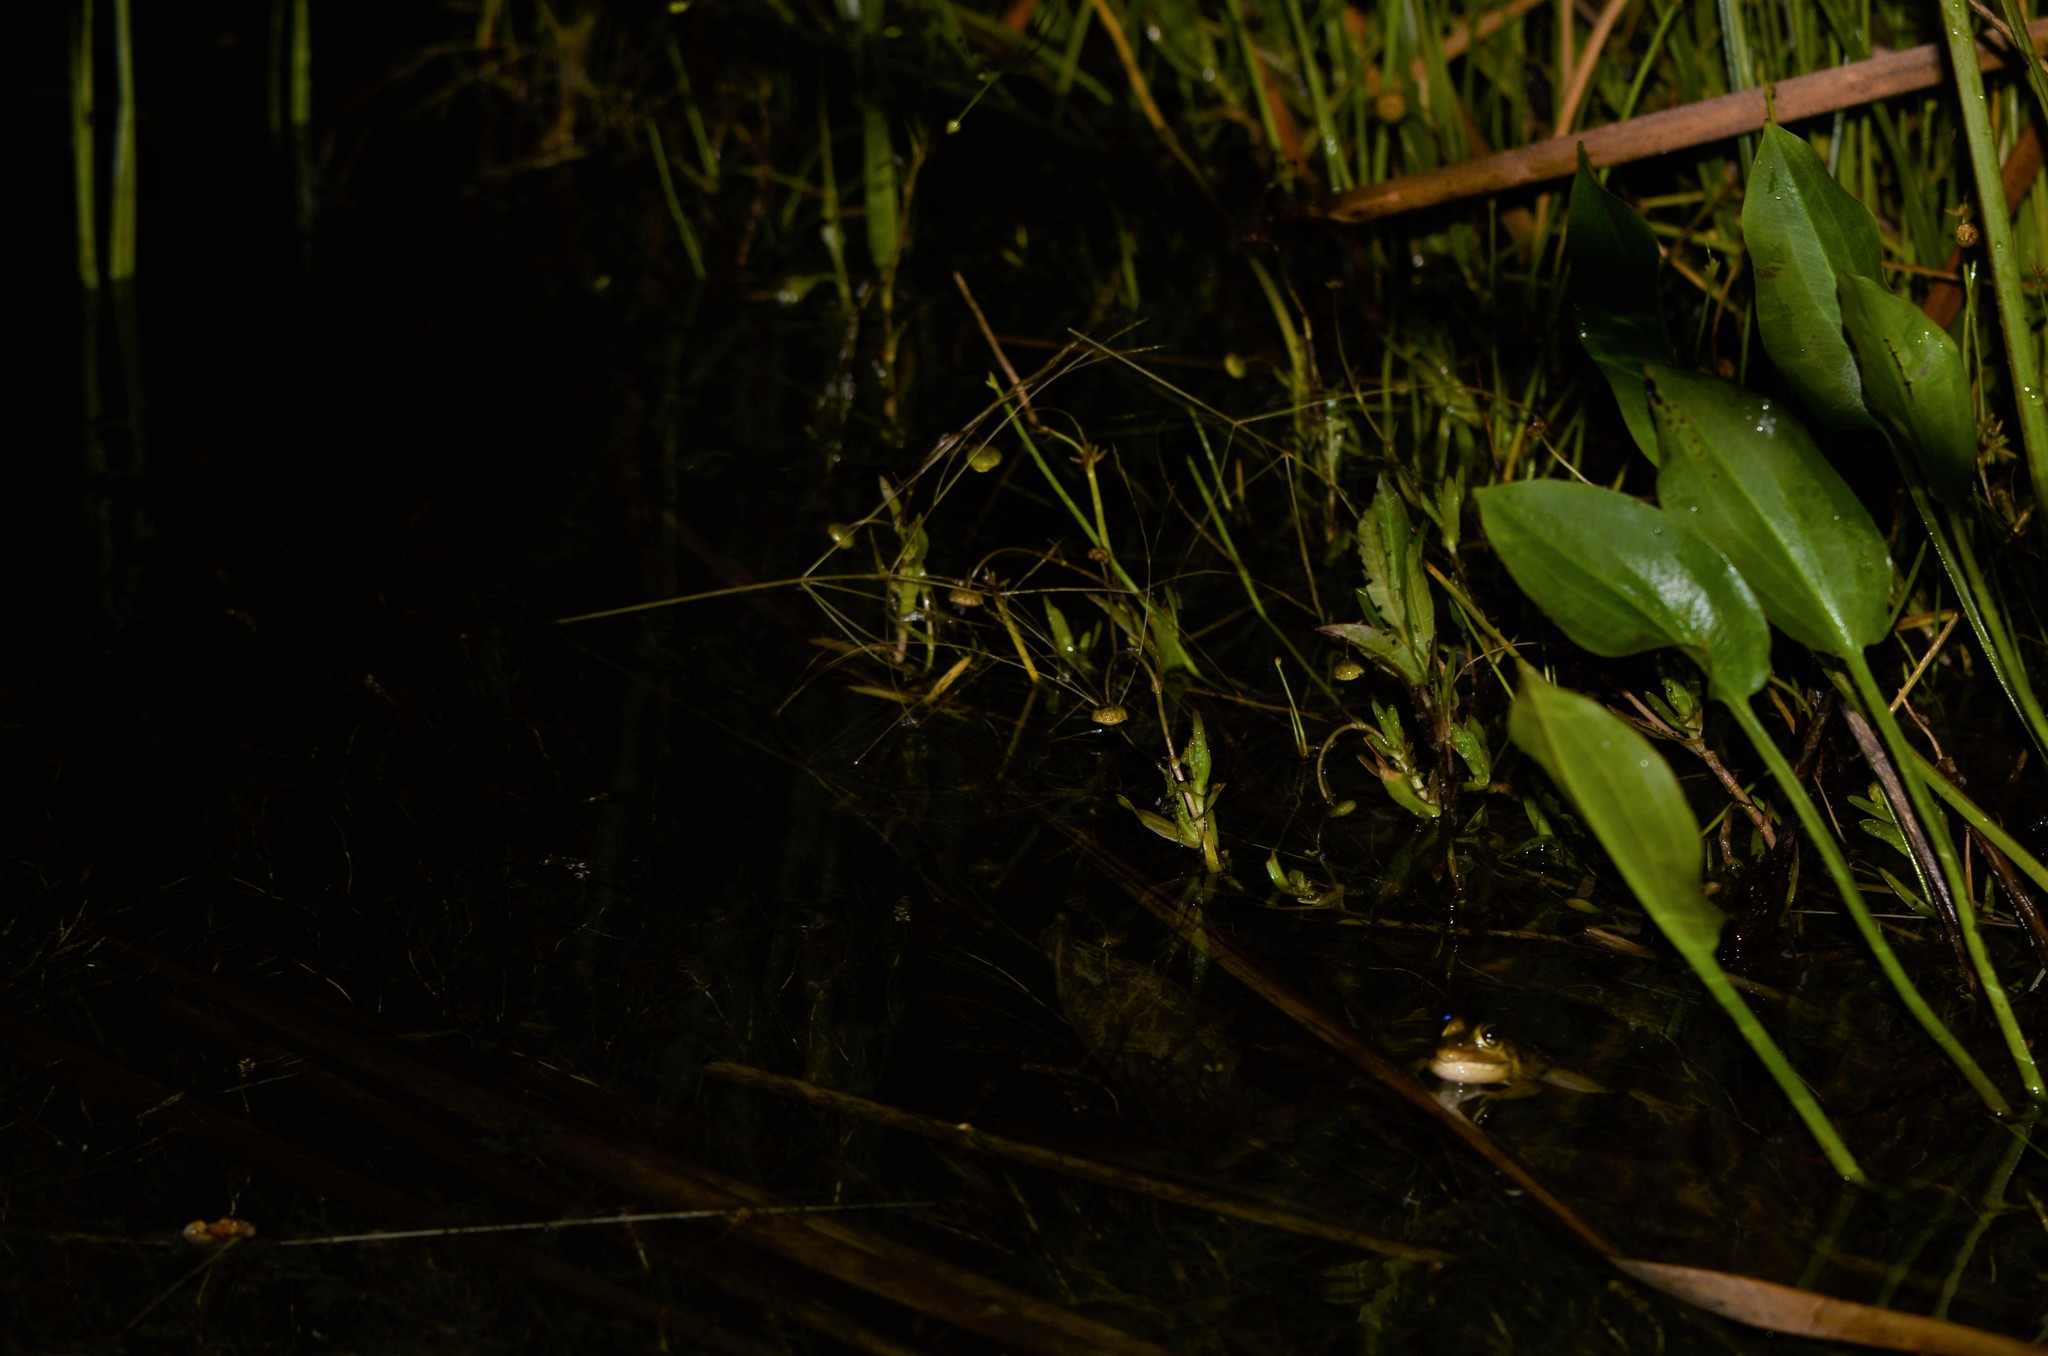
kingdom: Animalia
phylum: Chordata
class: Amphibia
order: Anura
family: Pyxicephalidae
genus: Amietia
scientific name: Amietia fuscigula
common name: Cape rana
